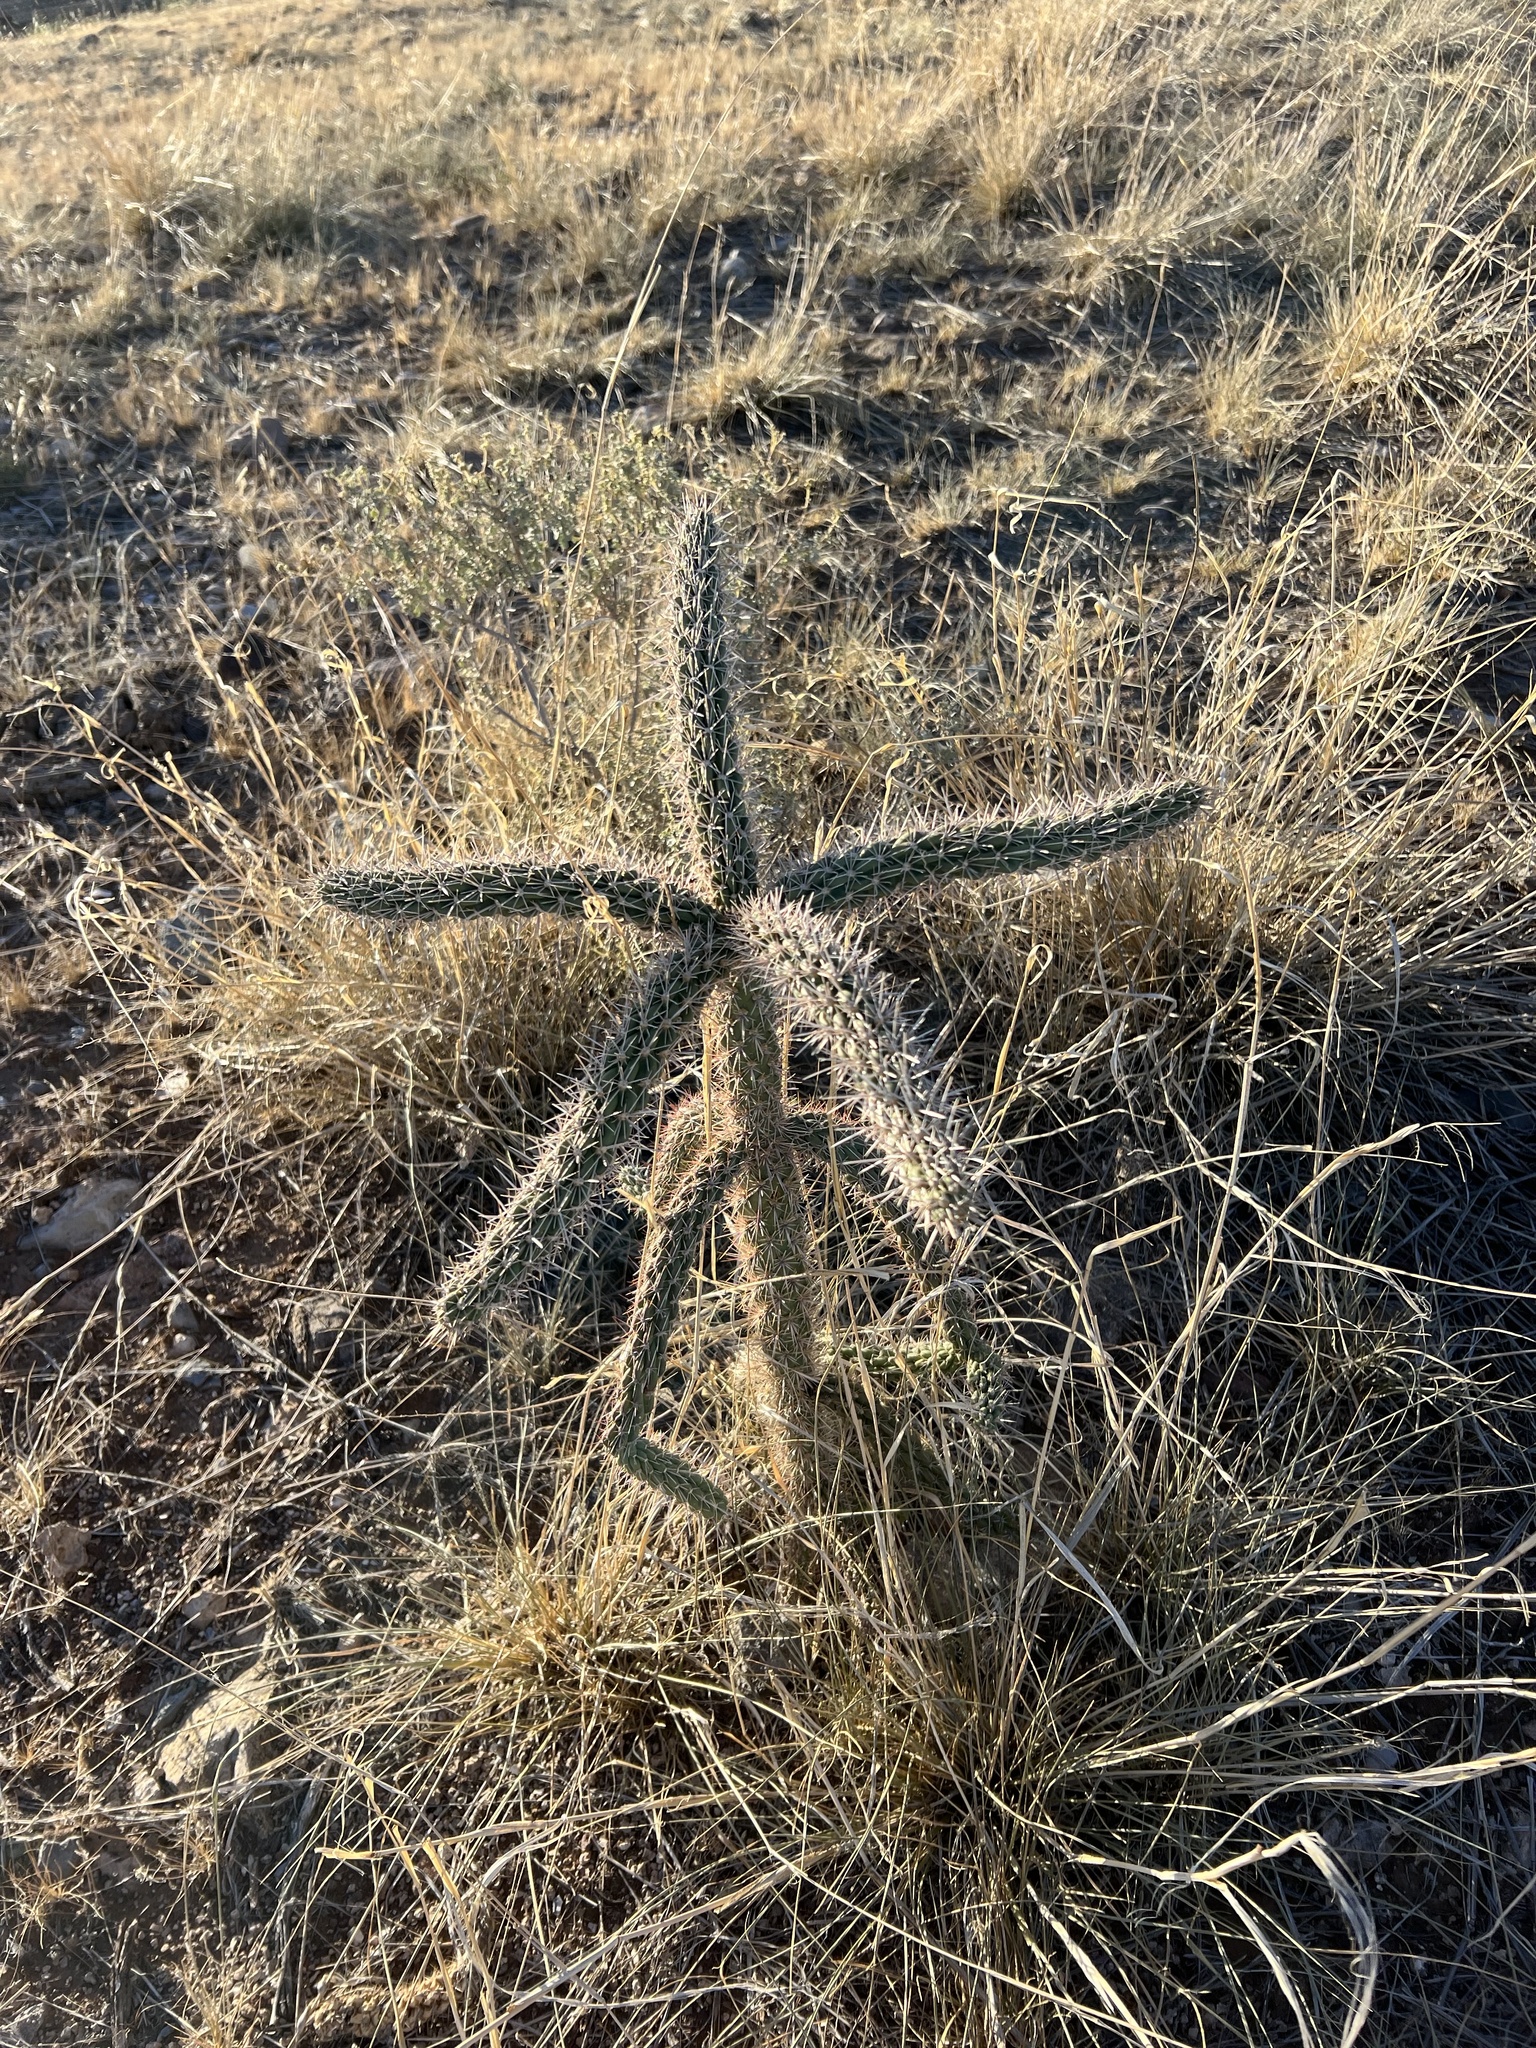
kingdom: Plantae
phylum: Tracheophyta
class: Magnoliopsida
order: Caryophyllales
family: Cactaceae
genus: Cylindropuntia
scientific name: Cylindropuntia imbricata
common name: Candelabrum cactus
